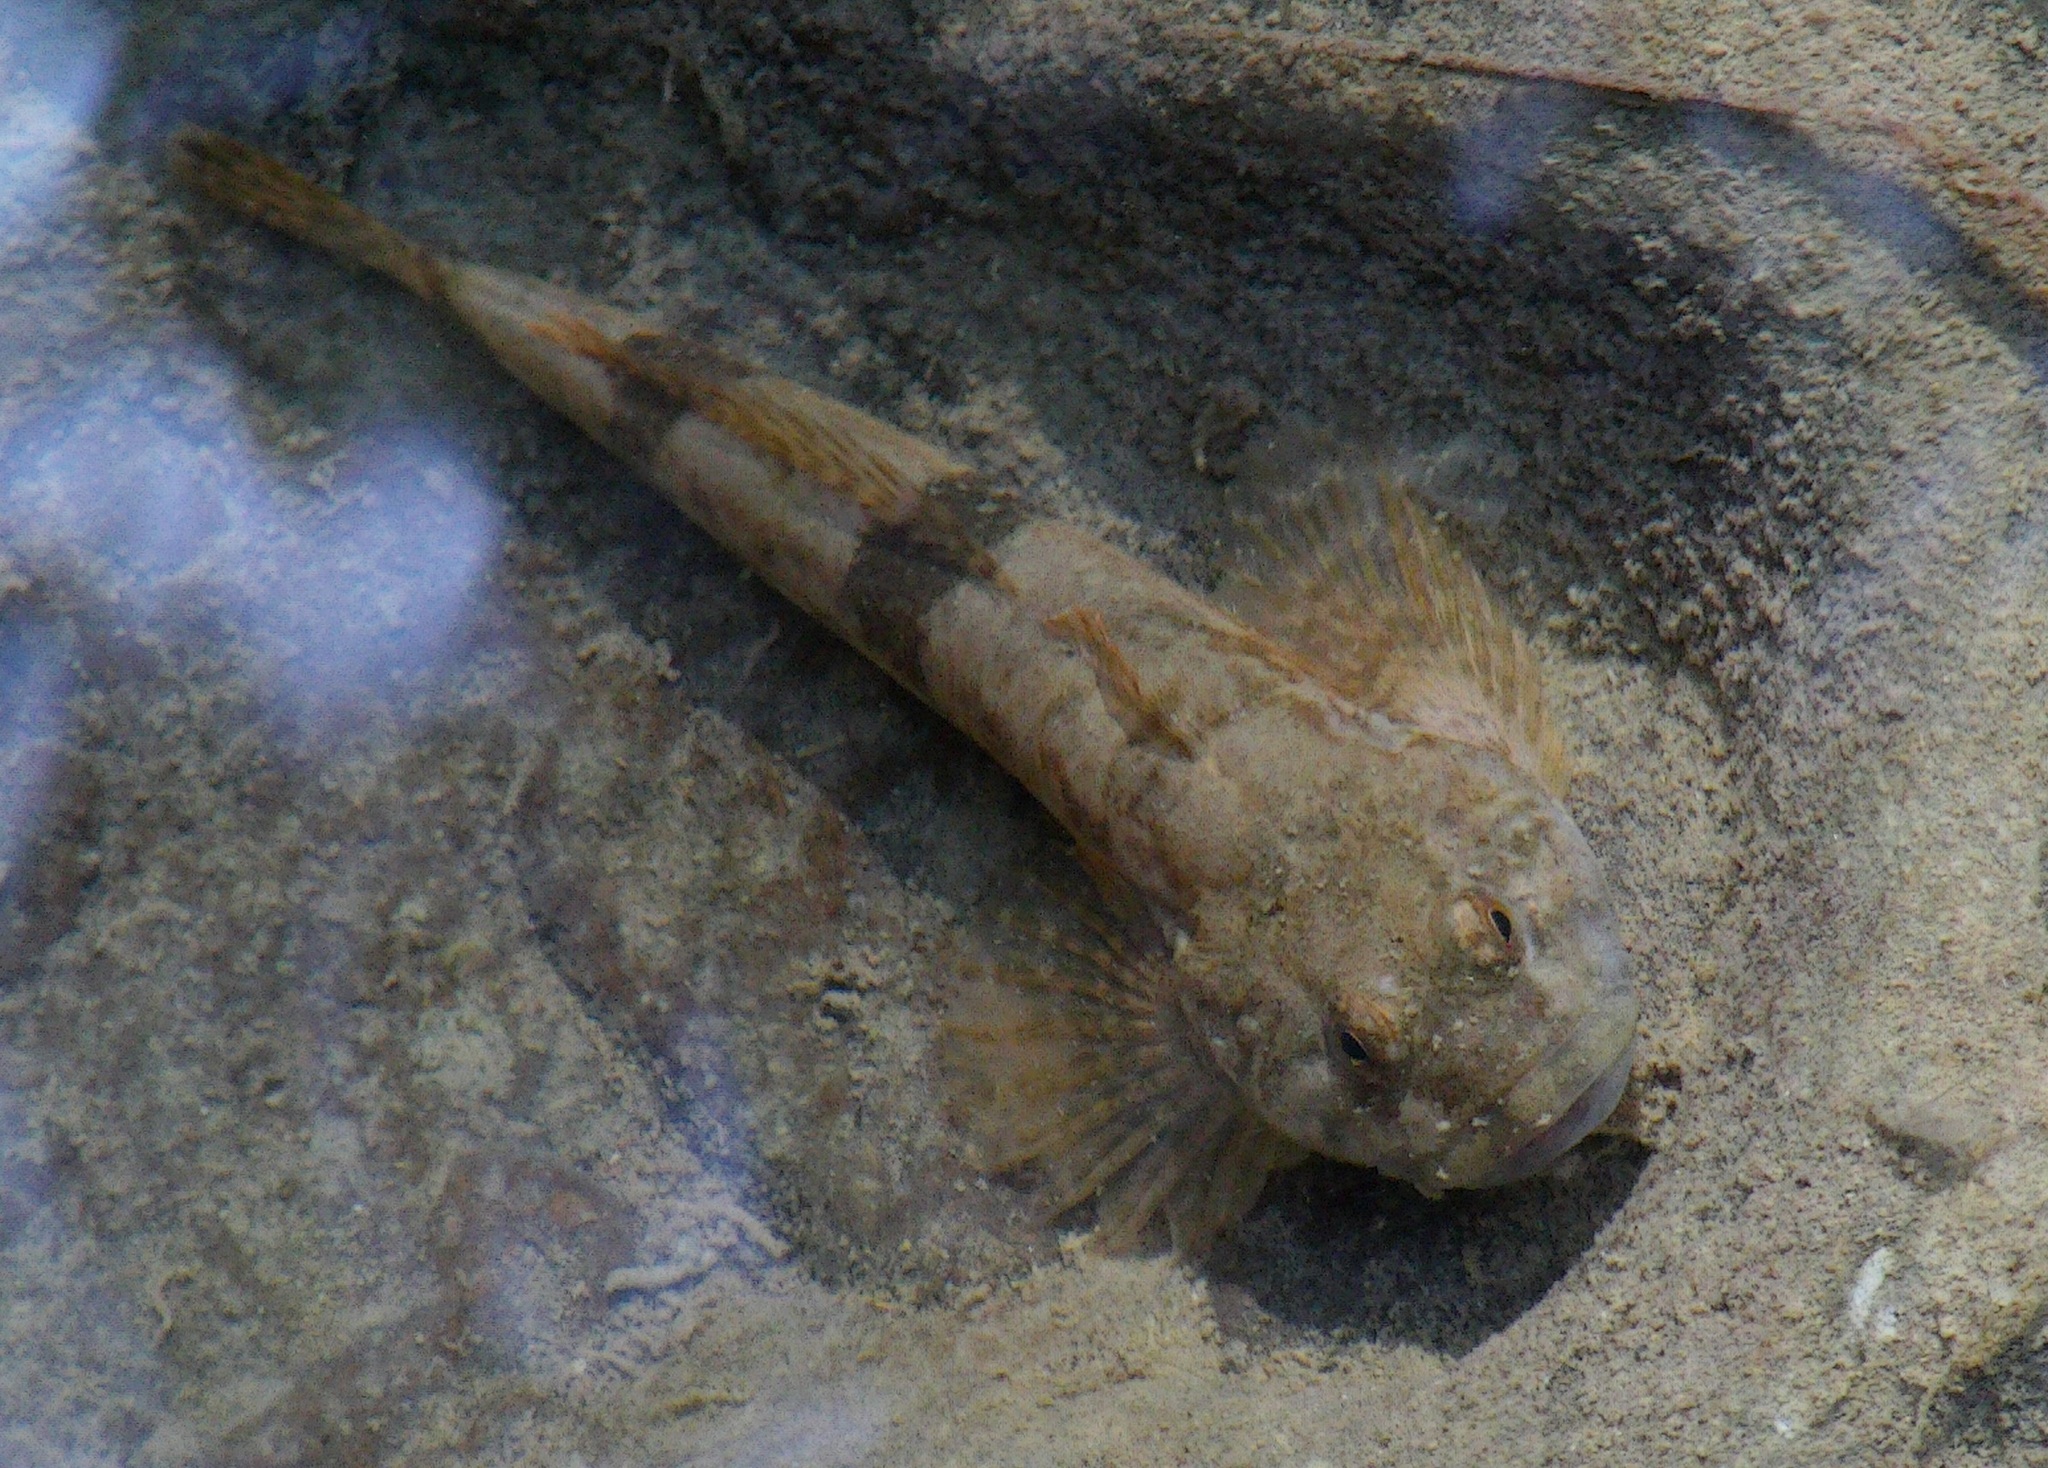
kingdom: Animalia
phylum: Chordata
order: Scorpaeniformes
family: Cottidae
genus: Cottus
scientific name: Cottus gobio
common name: Bullhead
